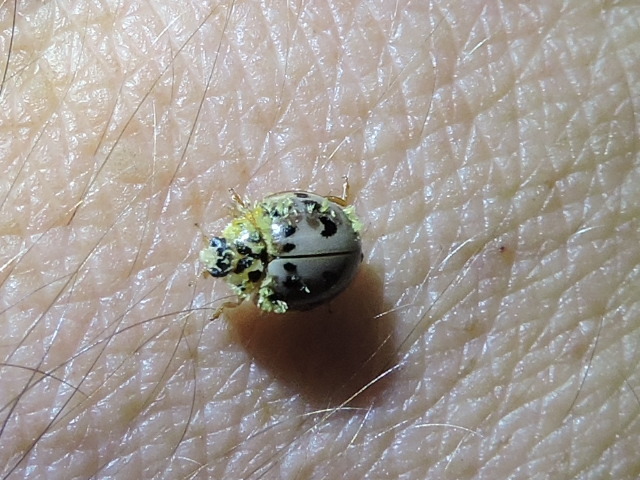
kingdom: Animalia
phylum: Arthropoda
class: Insecta
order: Coleoptera
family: Coccinellidae
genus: Olla
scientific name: Olla v-nigrum
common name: Ashy gray lady beetle
